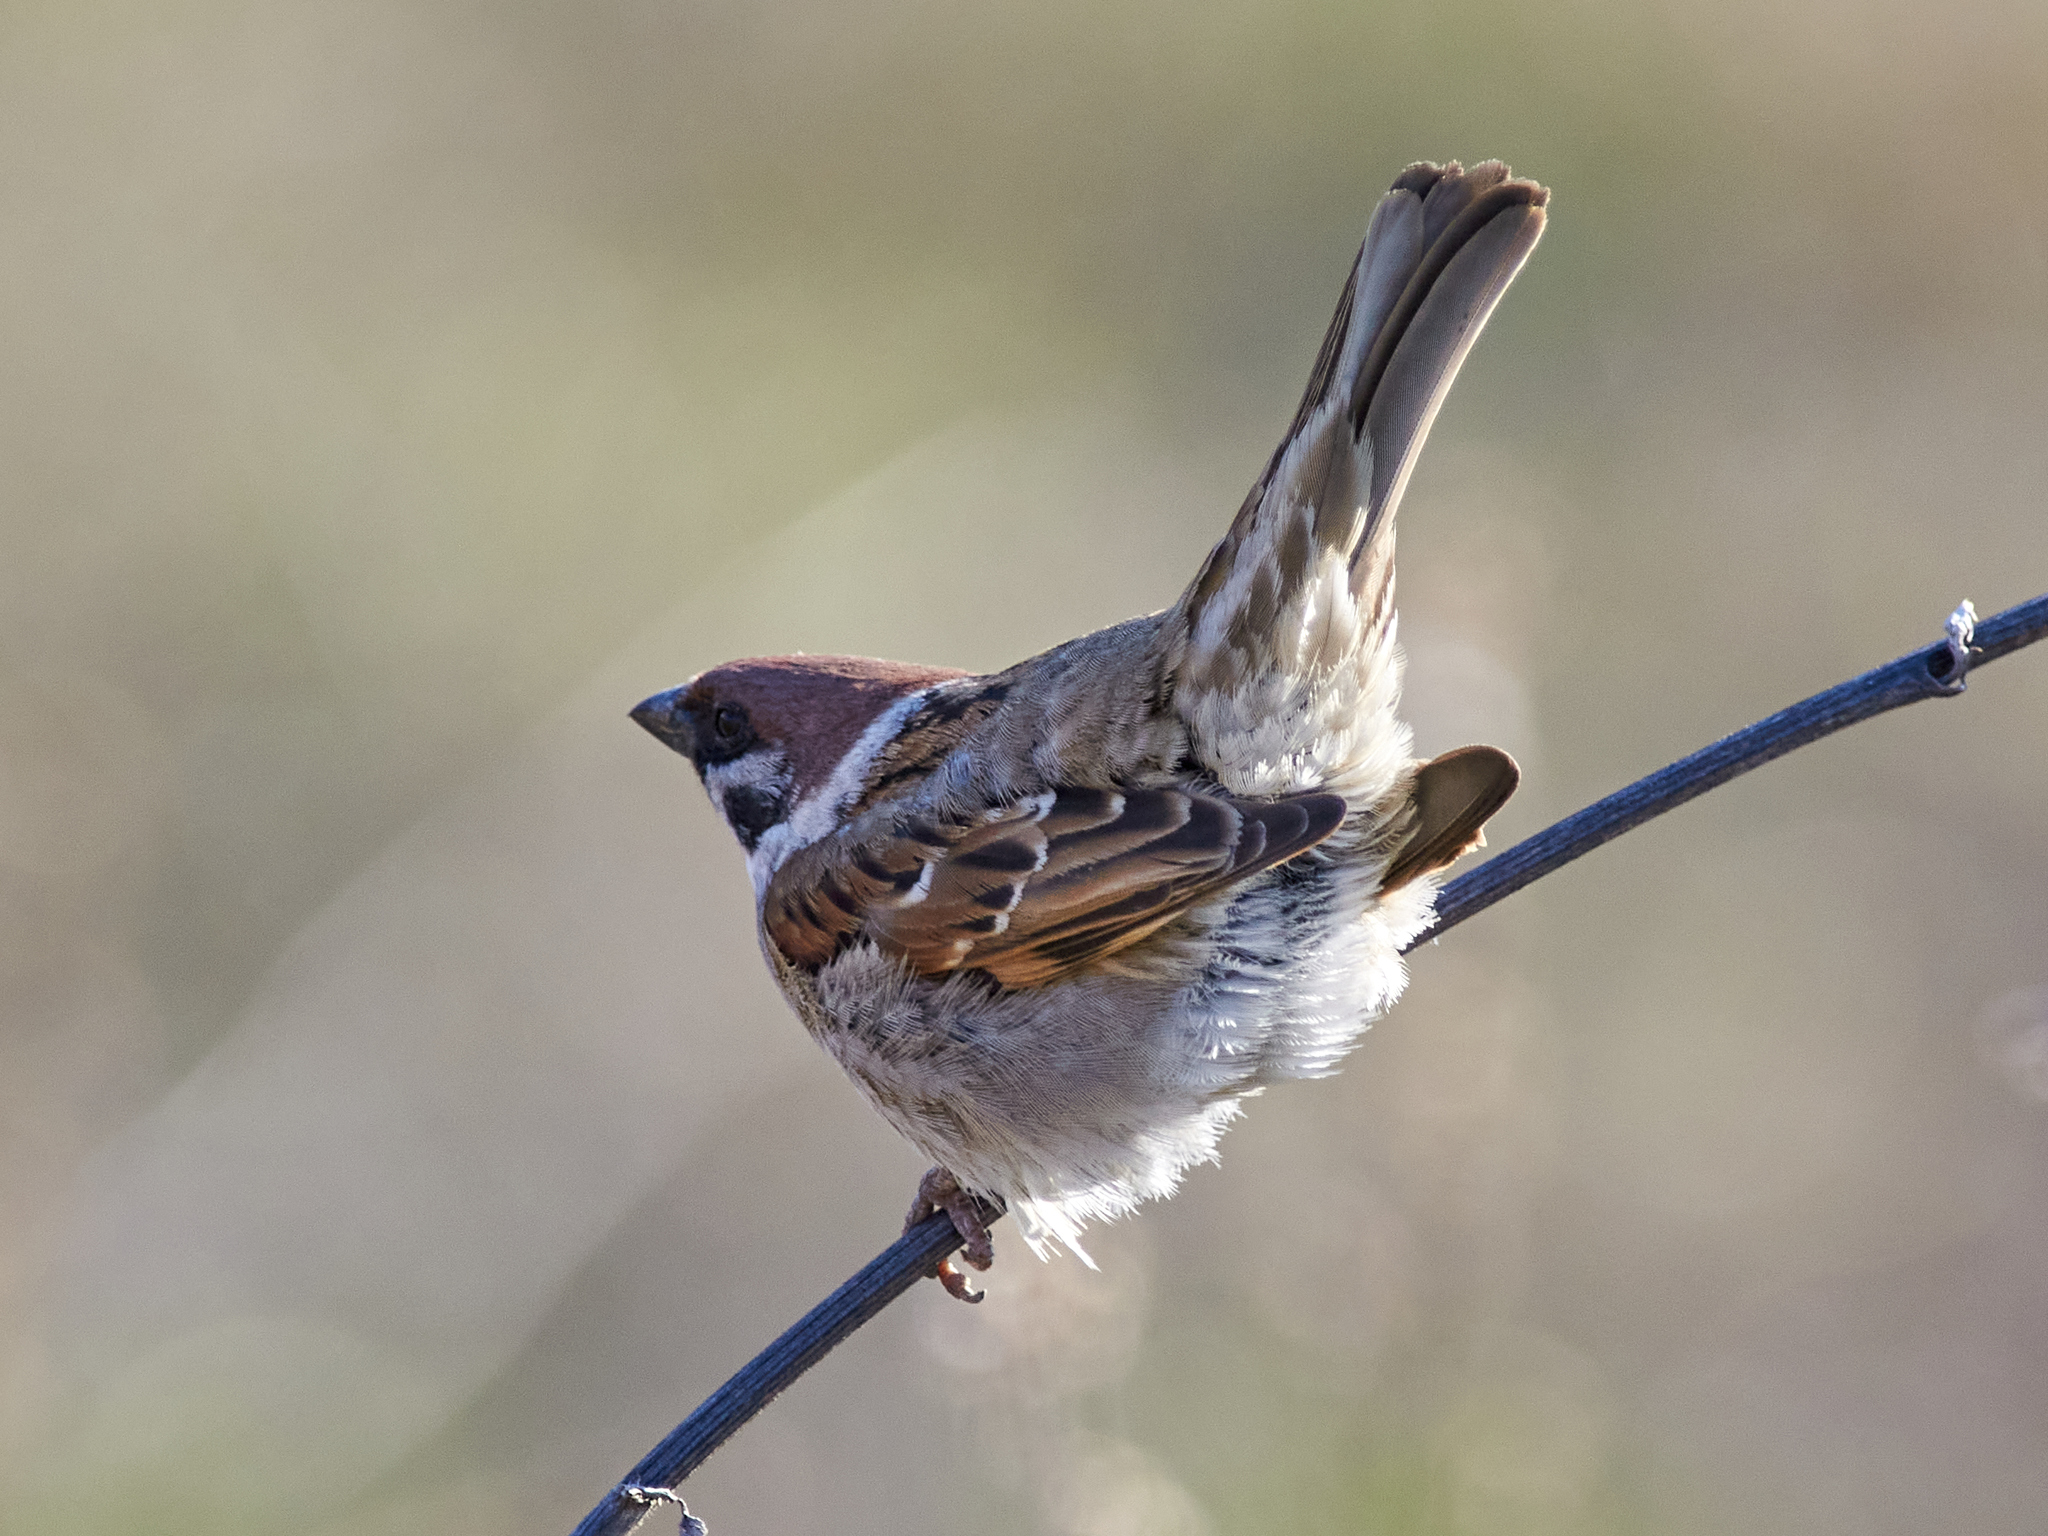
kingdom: Animalia
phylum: Chordata
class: Aves
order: Passeriformes
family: Passeridae
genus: Passer
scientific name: Passer montanus
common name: Eurasian tree sparrow
